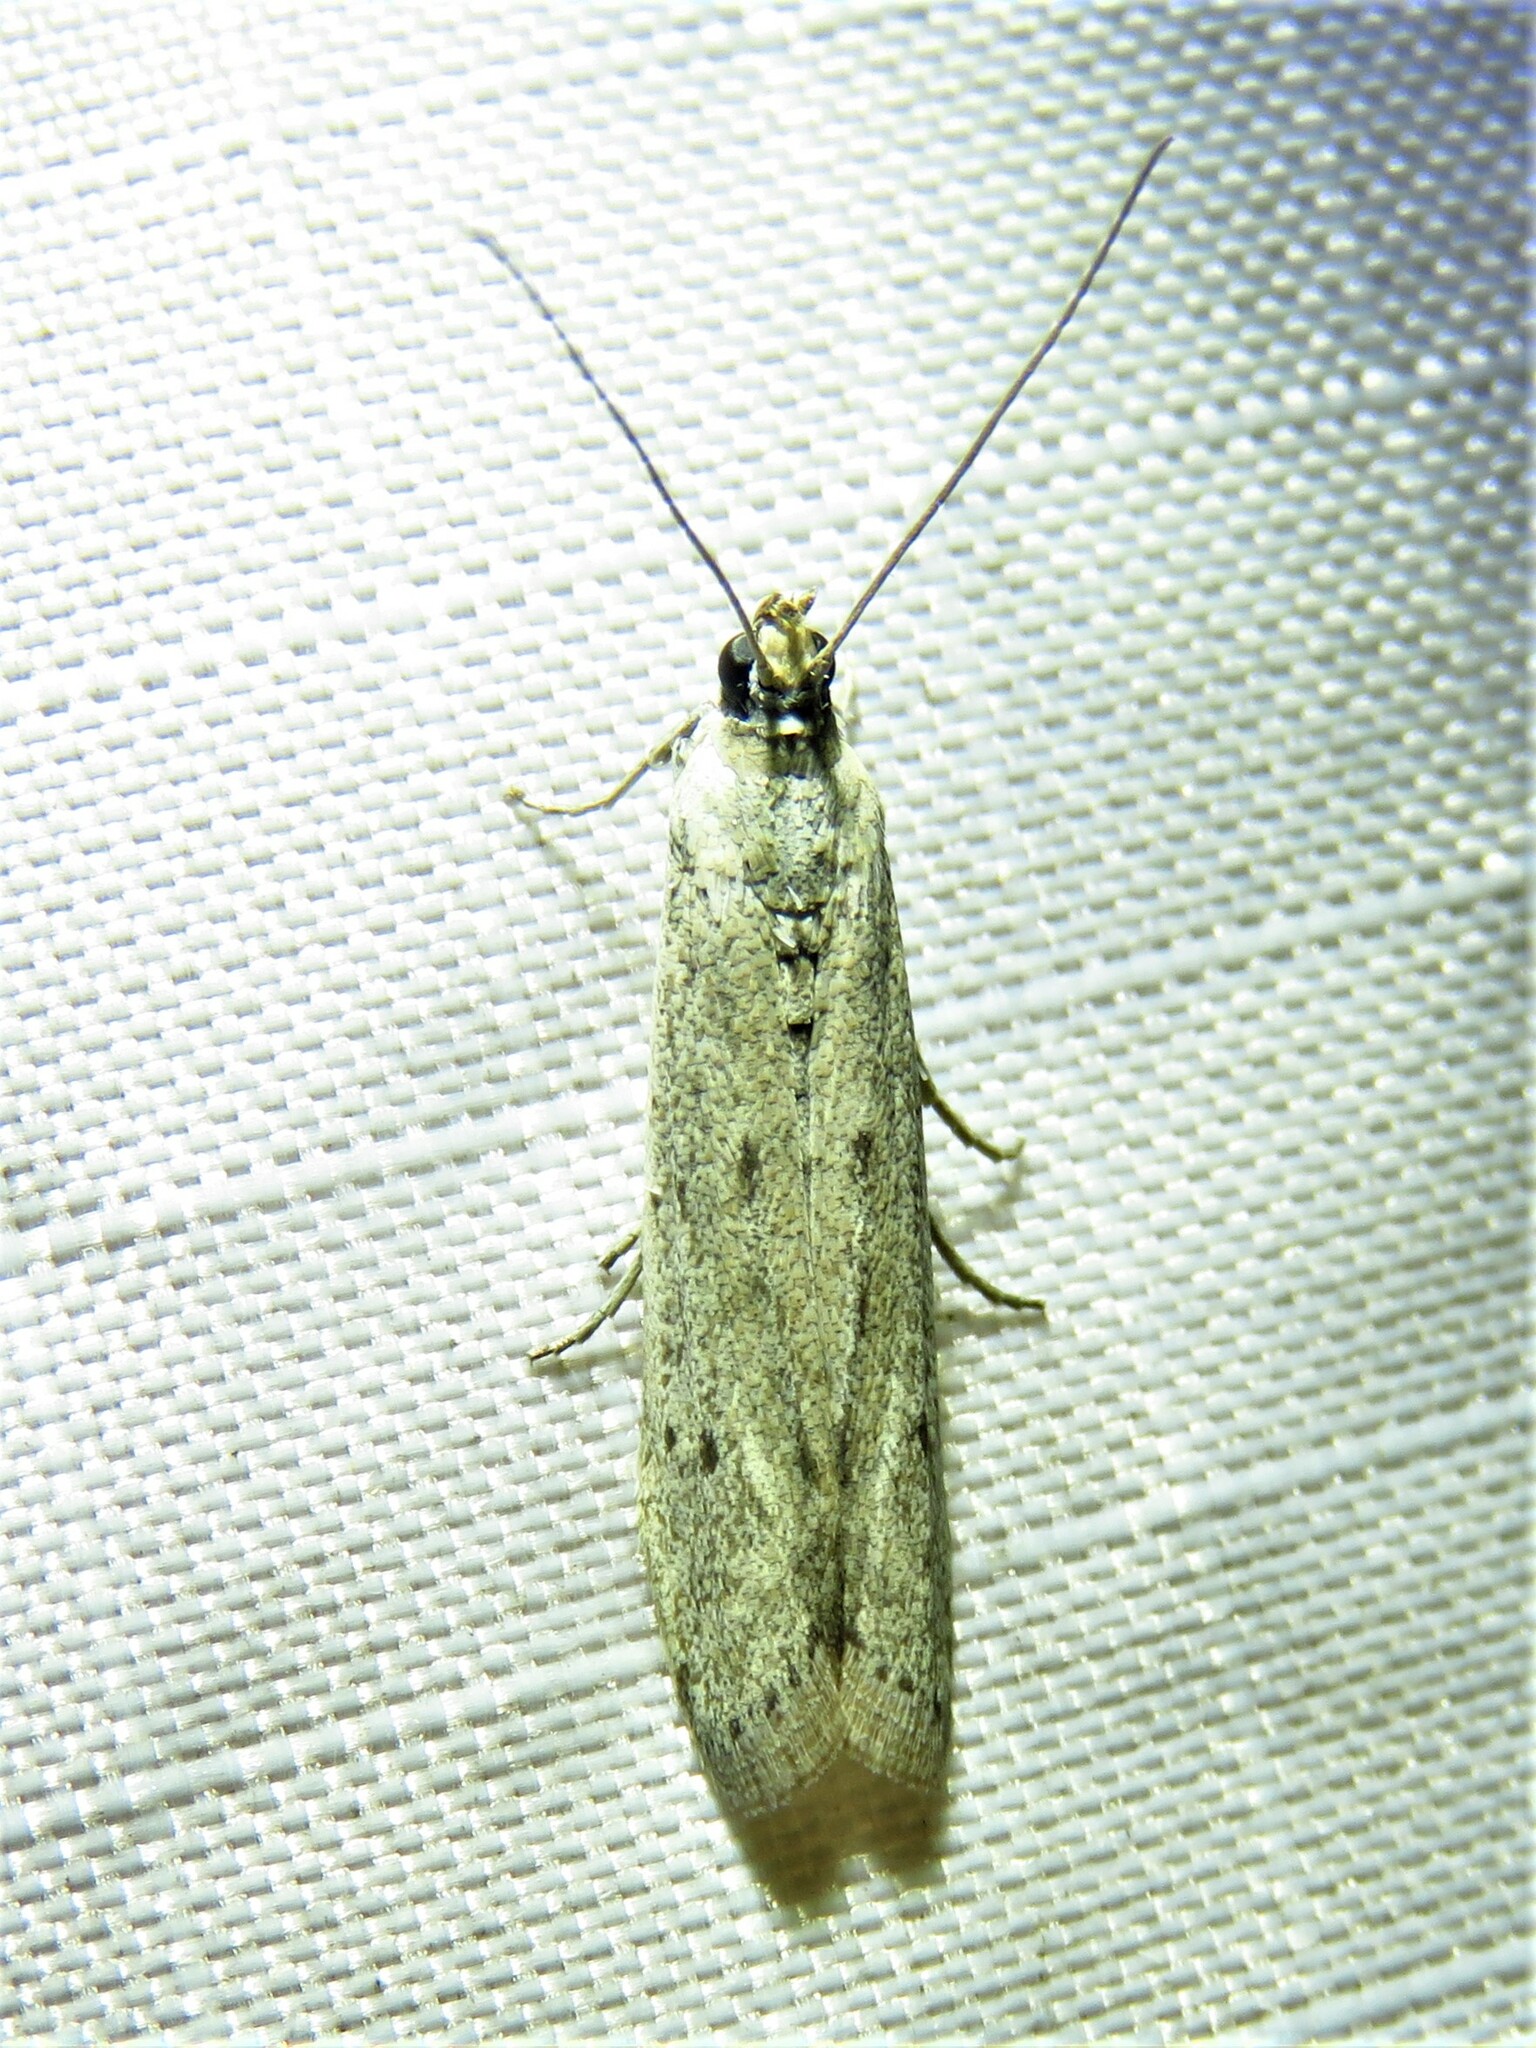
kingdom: Animalia
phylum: Arthropoda
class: Insecta
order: Lepidoptera
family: Pyralidae
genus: Homoeosoma
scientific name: Homoeosoma electella
